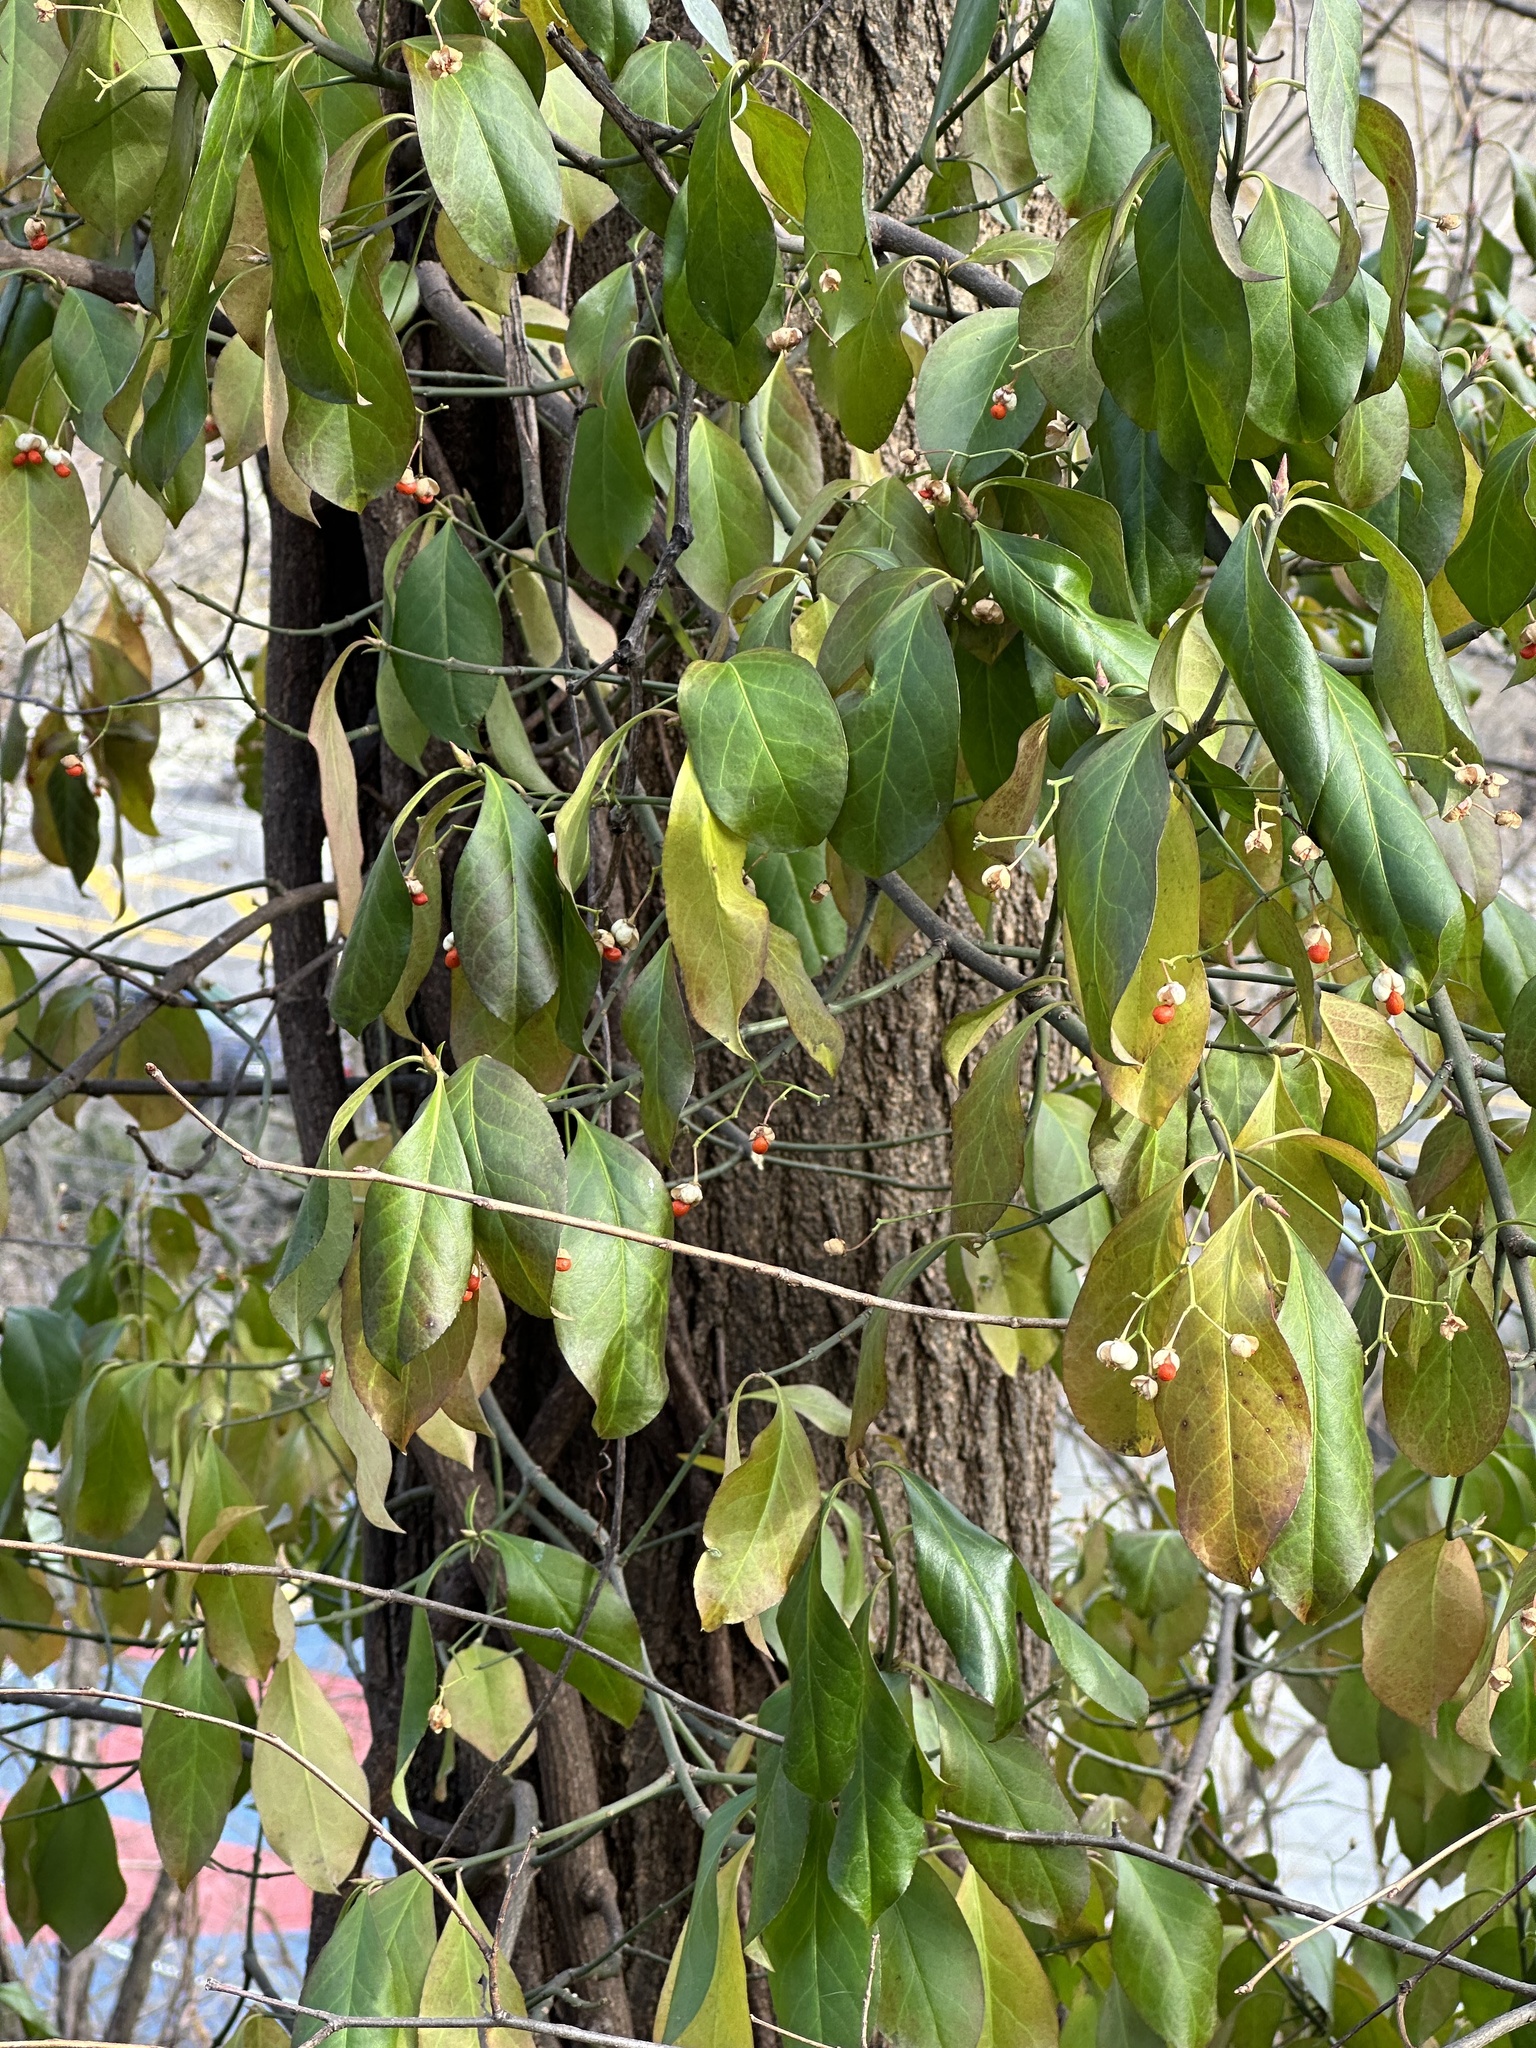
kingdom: Plantae
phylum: Tracheophyta
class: Magnoliopsida
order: Celastrales
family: Celastraceae
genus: Euonymus
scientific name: Euonymus fortunei
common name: Climbing euonymus
